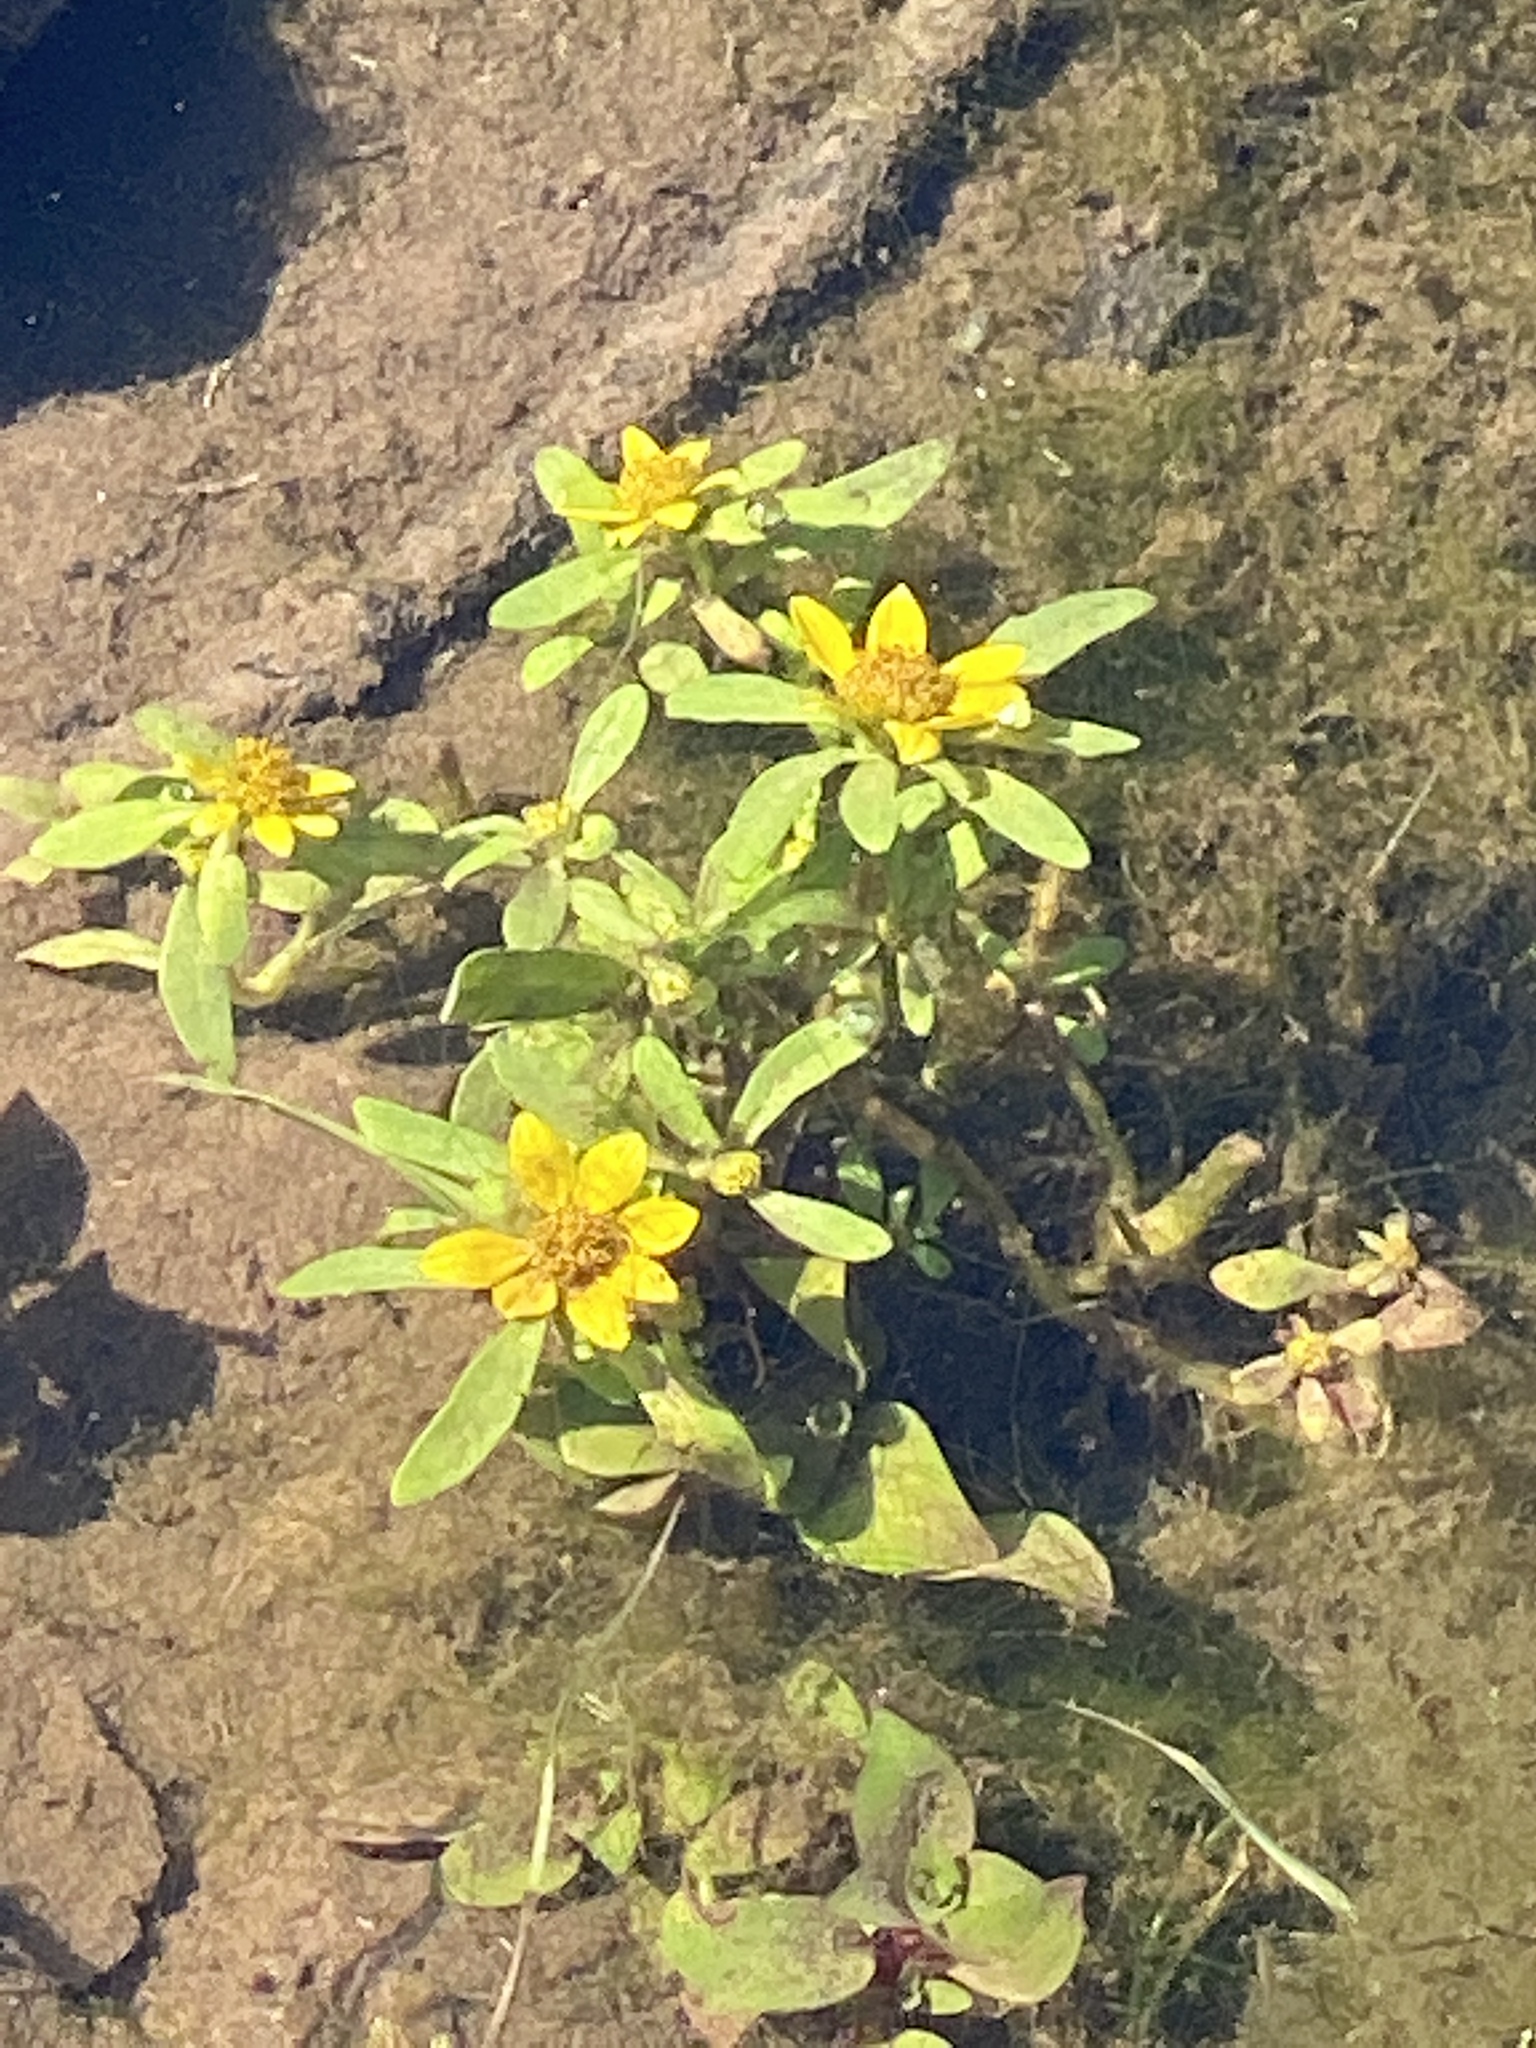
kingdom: Plantae
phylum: Tracheophyta
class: Magnoliopsida
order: Asterales
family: Asteraceae
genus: Bidens
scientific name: Bidens cernua
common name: Nodding bur-marigold
